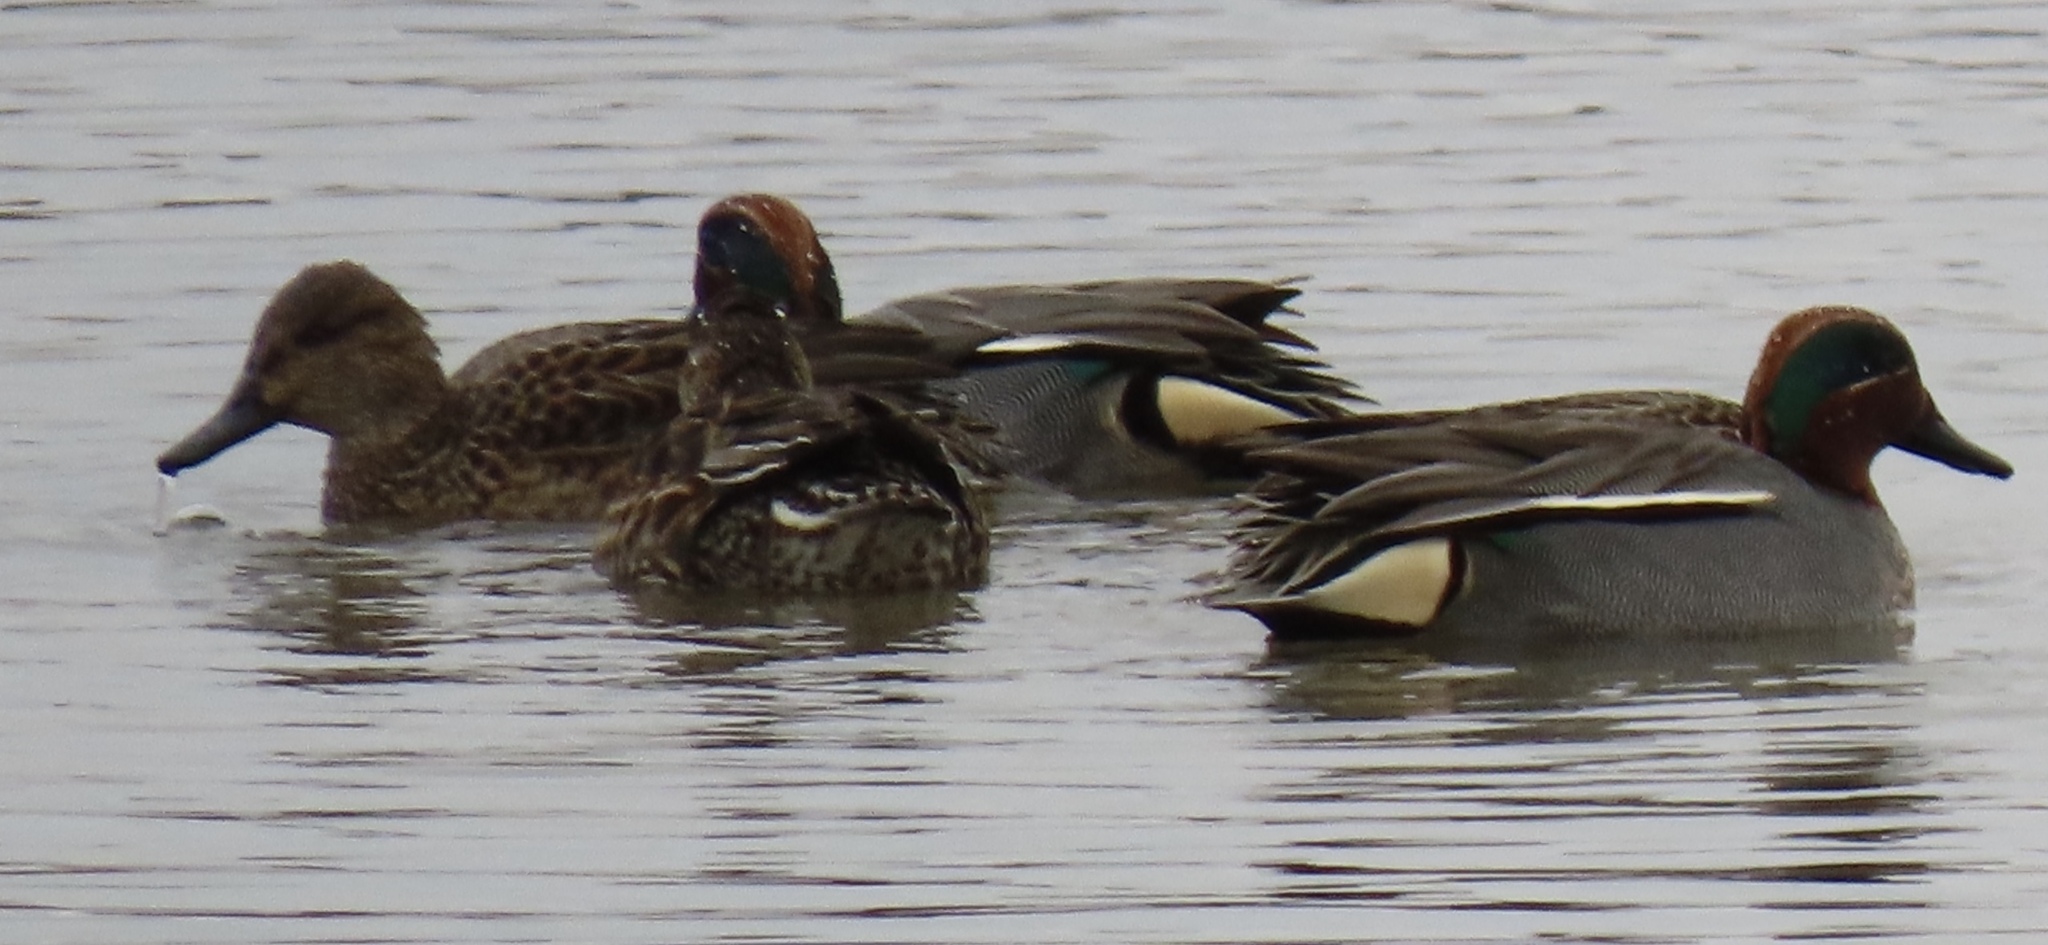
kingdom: Animalia
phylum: Chordata
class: Aves
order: Anseriformes
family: Anatidae
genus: Anas
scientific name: Anas crecca
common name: Eurasian teal
